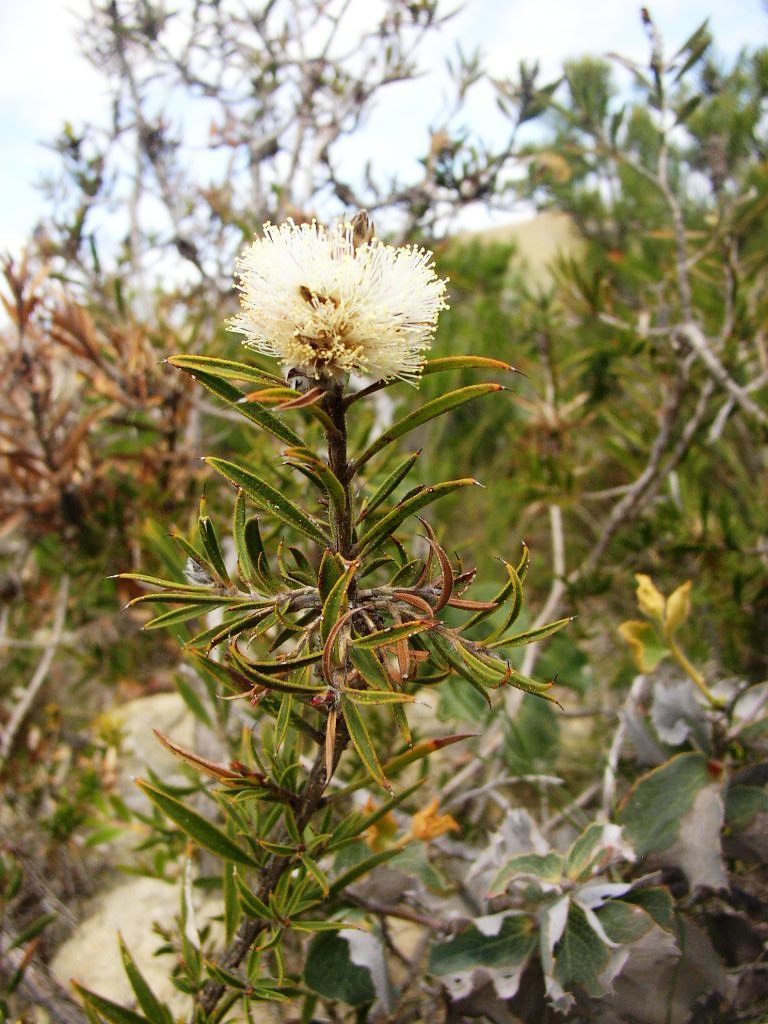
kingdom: Plantae
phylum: Tracheophyta
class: Magnoliopsida
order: Myrtales
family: Myrtaceae
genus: Melaleuca
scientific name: Melaleuca cowleyae
